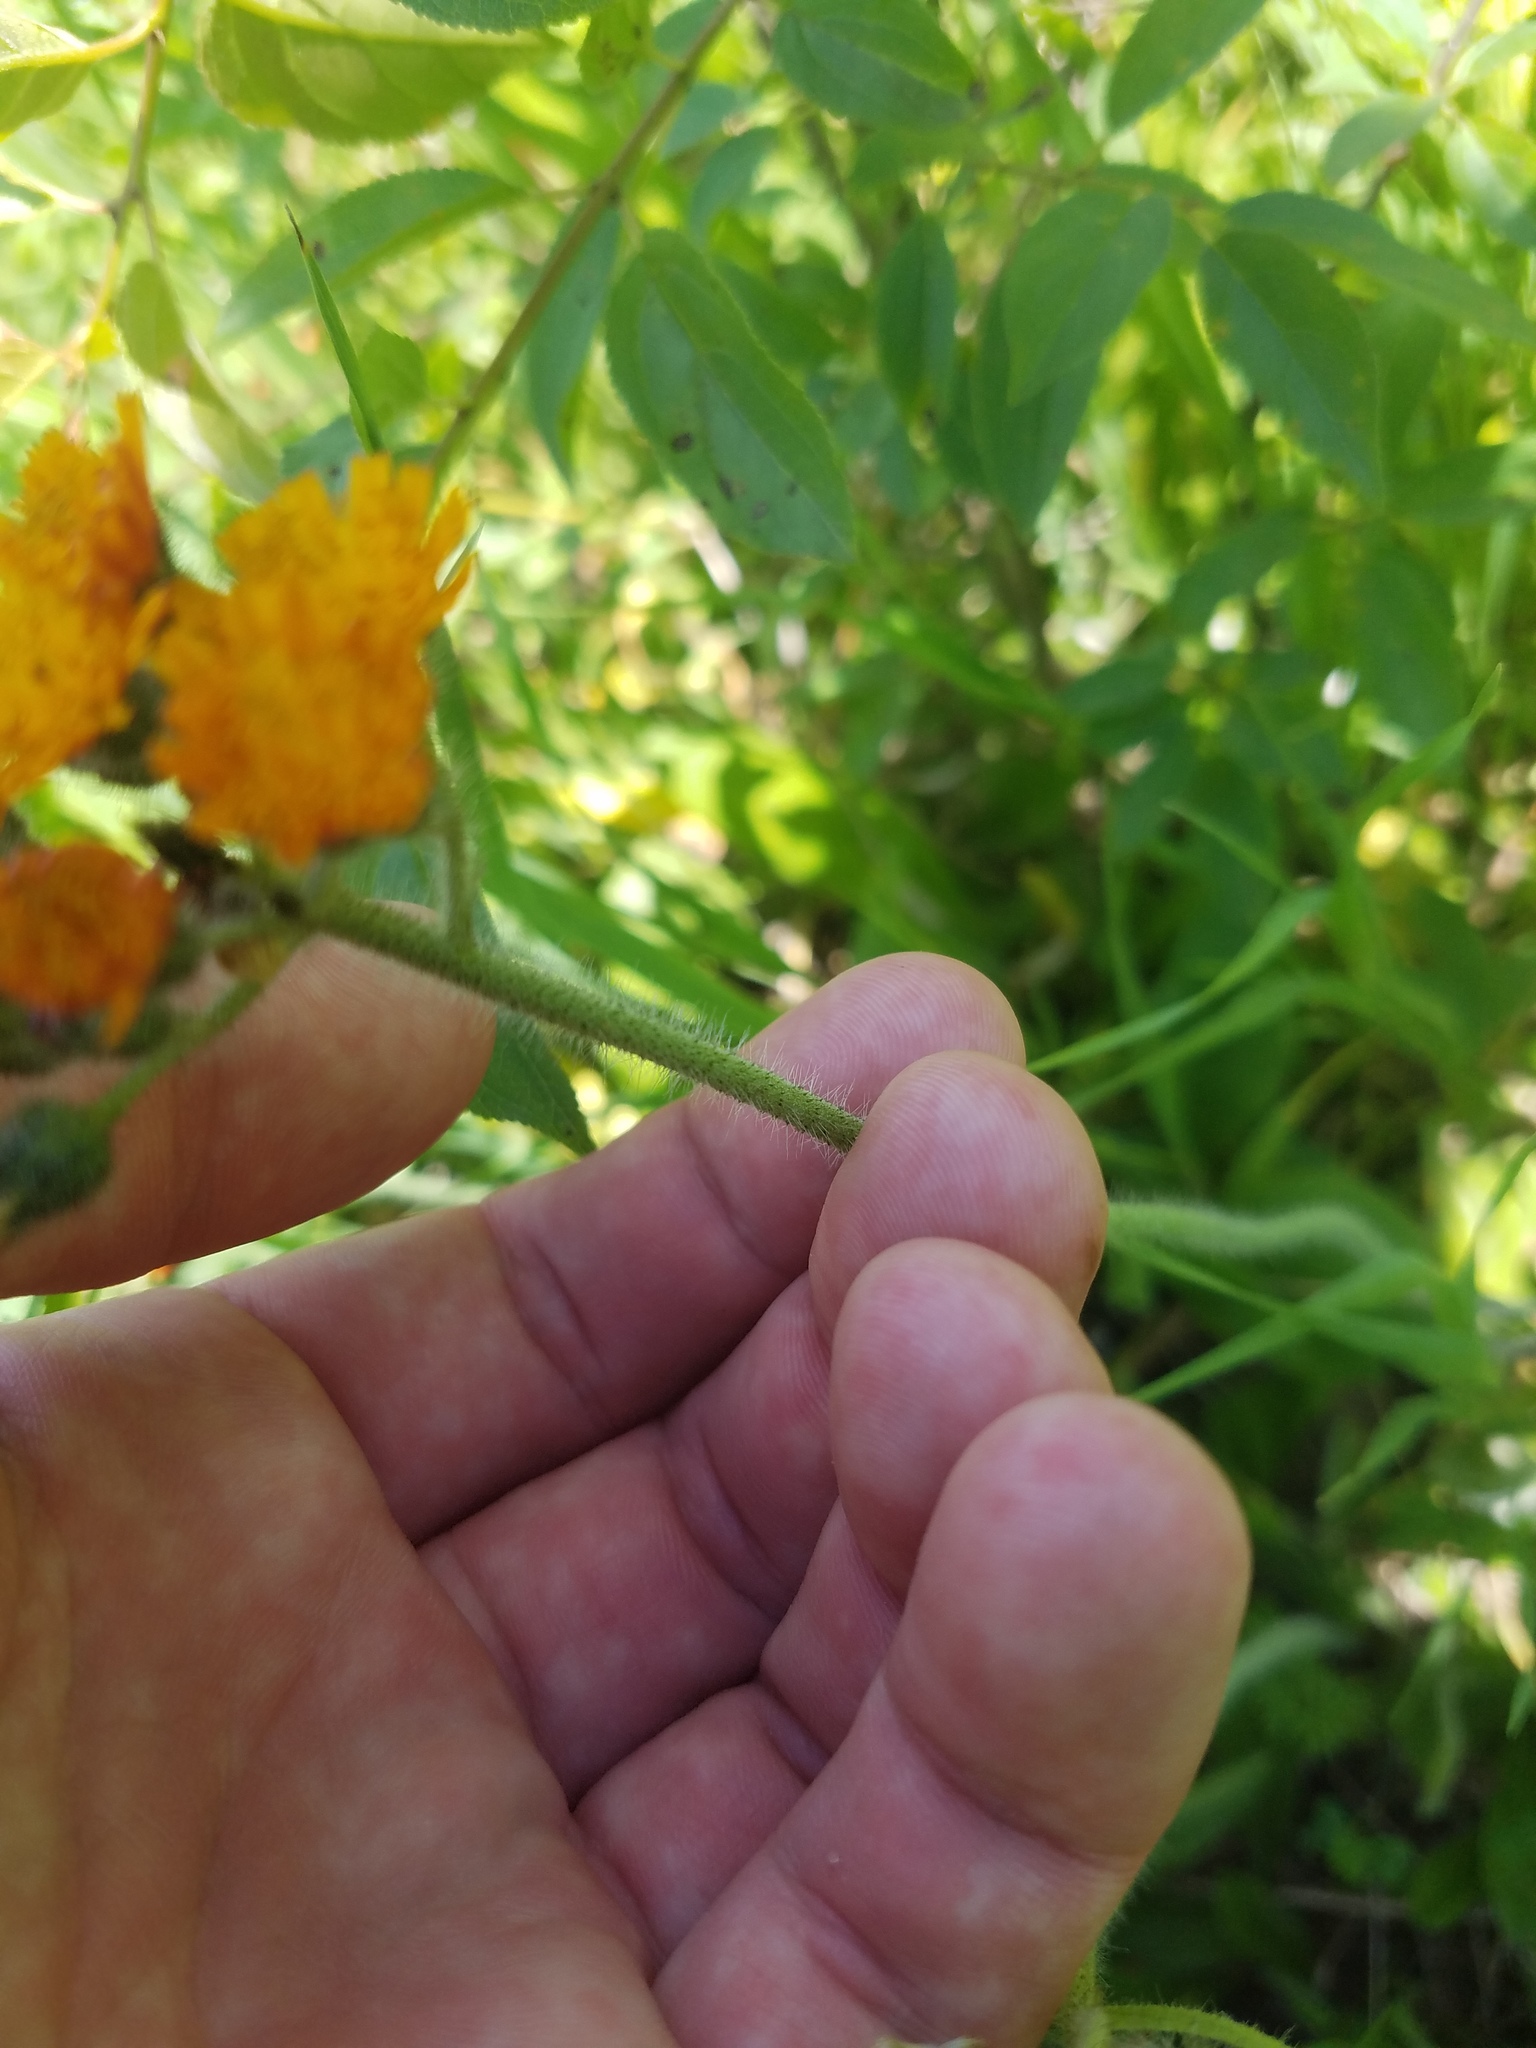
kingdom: Plantae
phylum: Tracheophyta
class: Magnoliopsida
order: Asterales
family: Asteraceae
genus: Pilosella
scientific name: Pilosella aurantiaca
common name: Fox-and-cubs
